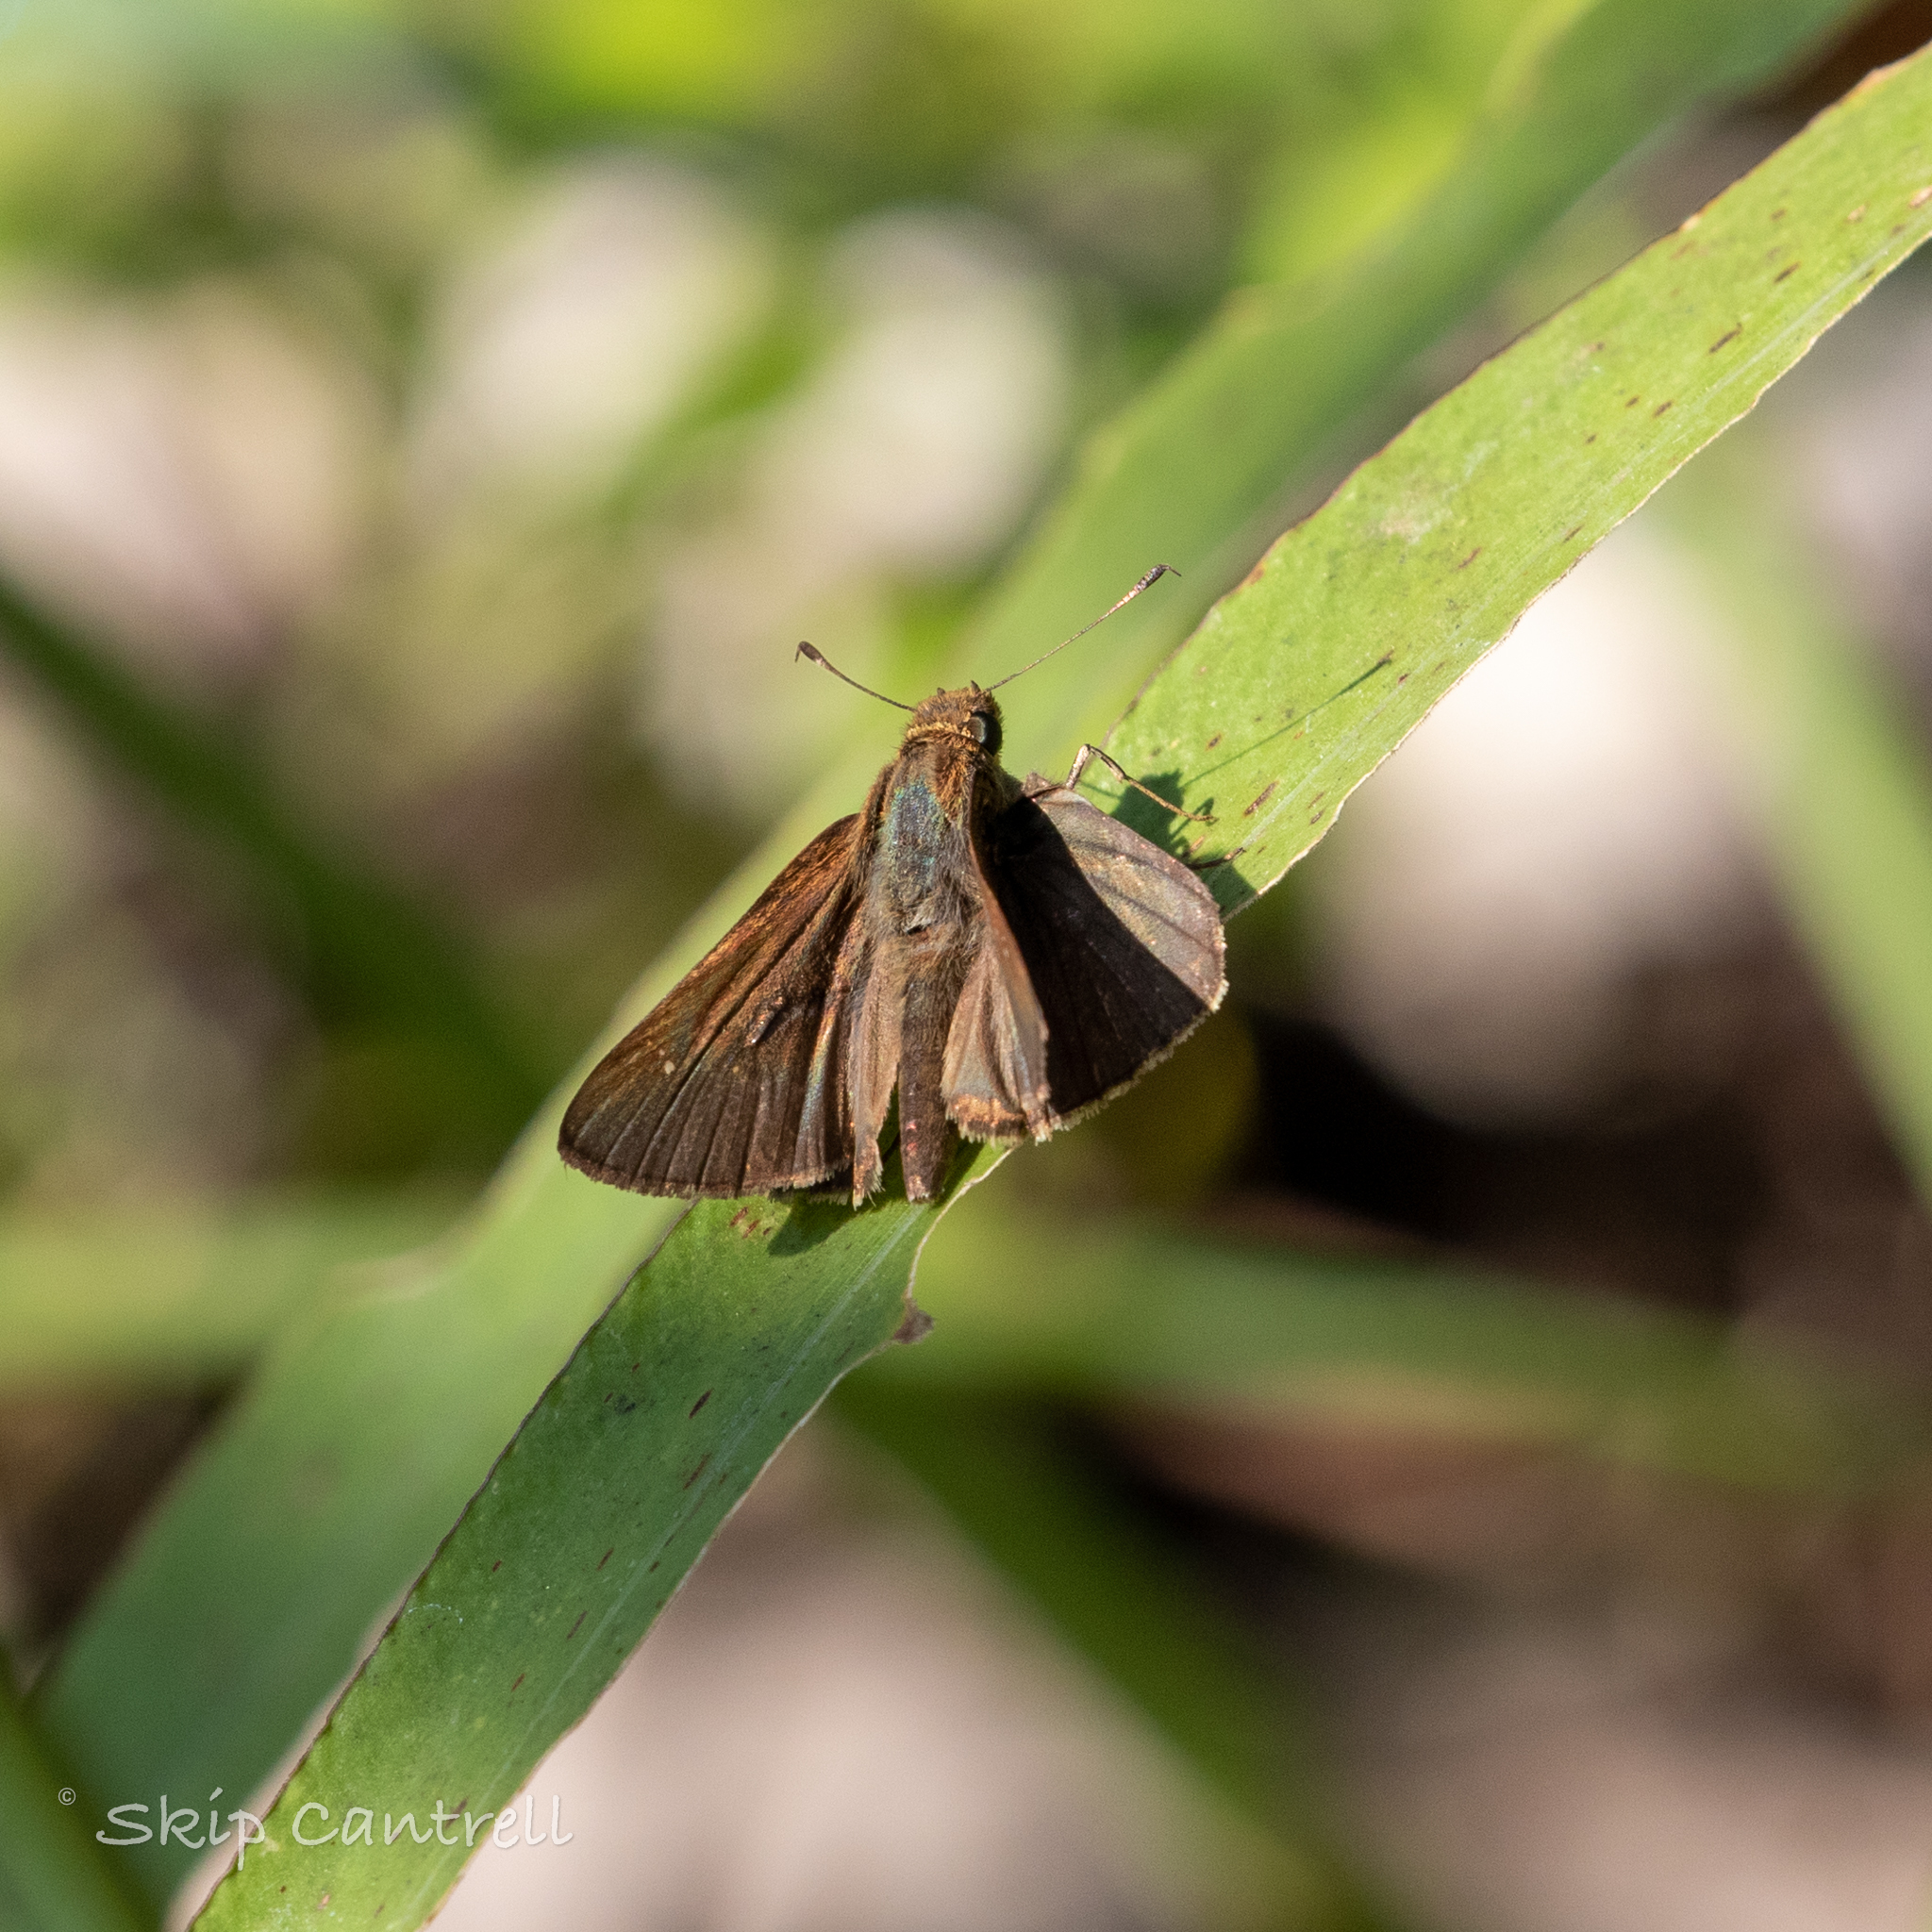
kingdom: Animalia
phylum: Arthropoda
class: Insecta
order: Lepidoptera
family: Hesperiidae
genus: Lerema
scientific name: Lerema accius
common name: Clouded skipper
